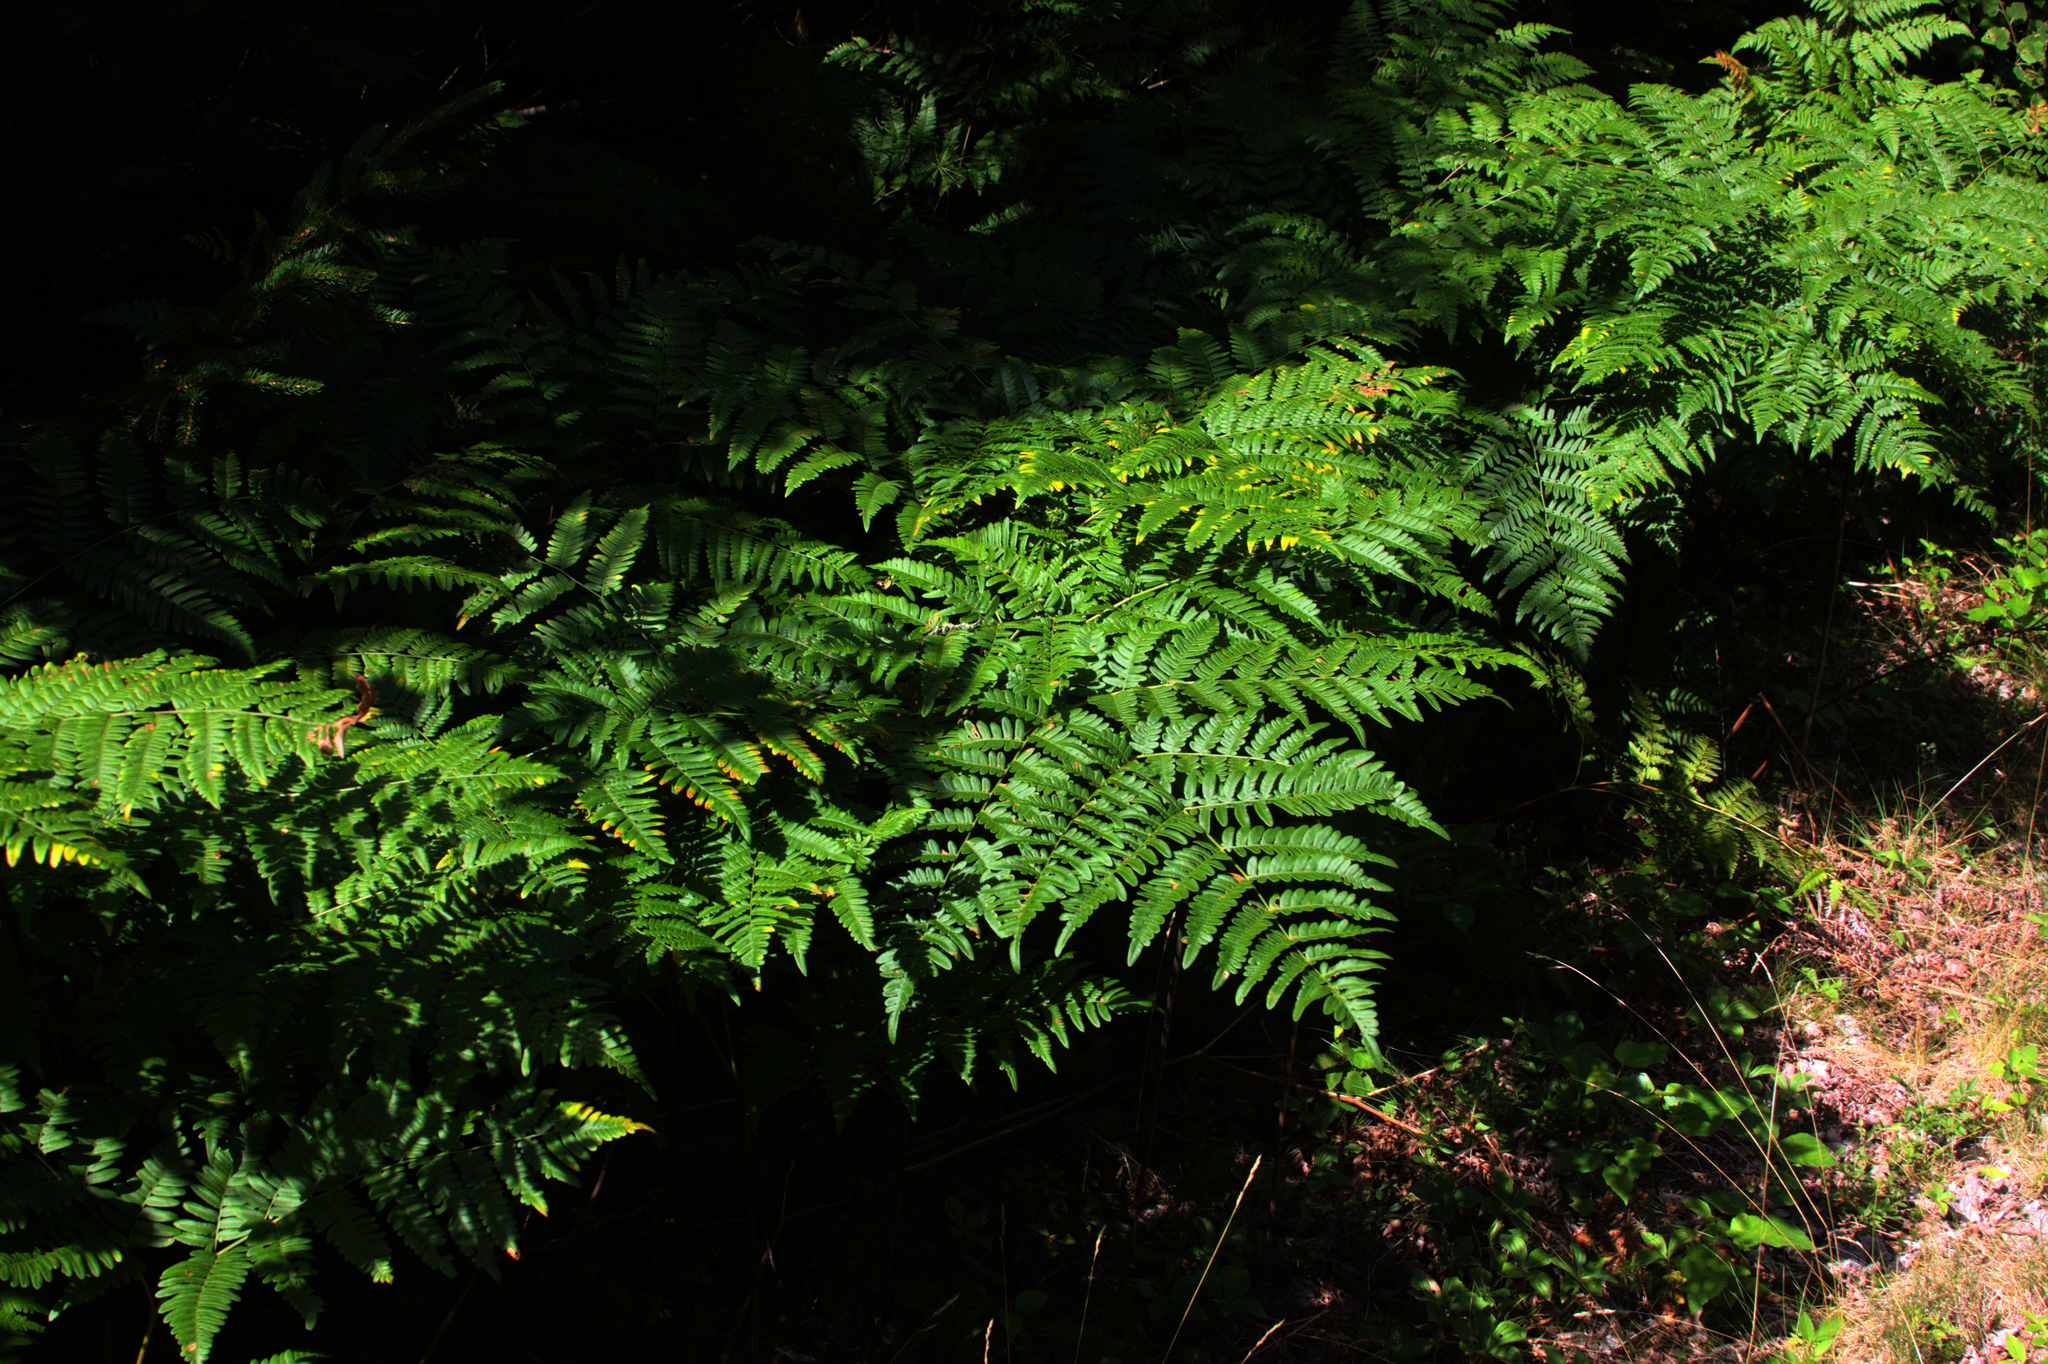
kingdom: Plantae
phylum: Tracheophyta
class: Polypodiopsida
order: Polypodiales
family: Dennstaedtiaceae
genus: Pteridium
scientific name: Pteridium aquilinum
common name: Bracken
